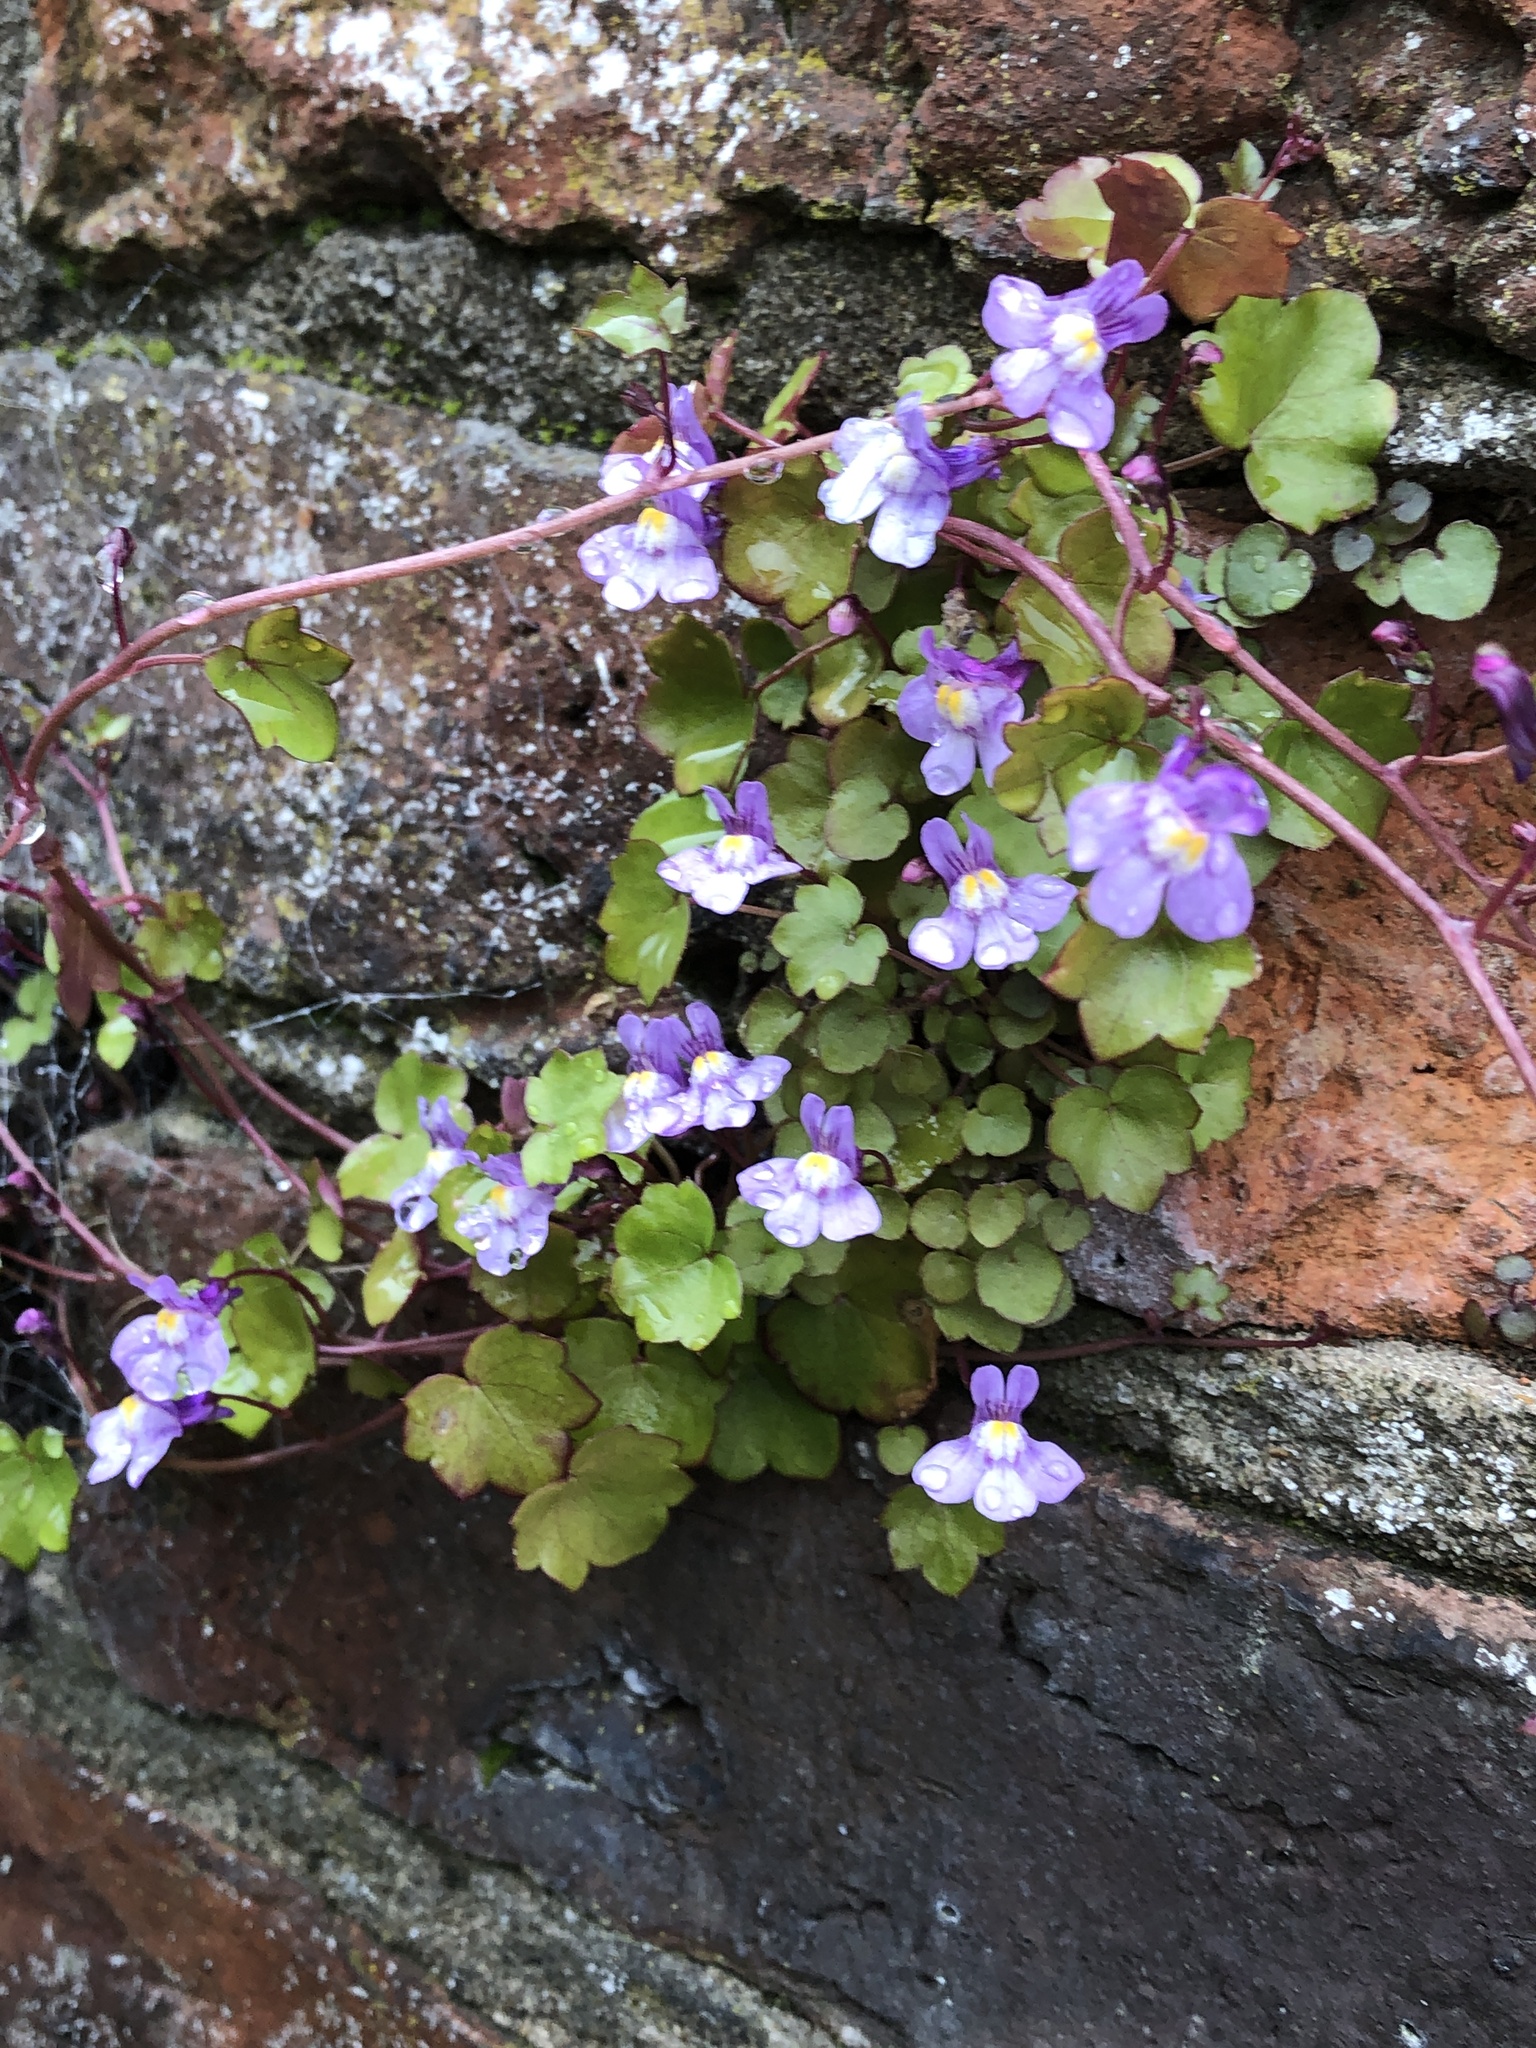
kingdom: Plantae
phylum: Tracheophyta
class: Magnoliopsida
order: Lamiales
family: Plantaginaceae
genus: Cymbalaria
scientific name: Cymbalaria muralis
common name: Ivy-leaved toadflax
